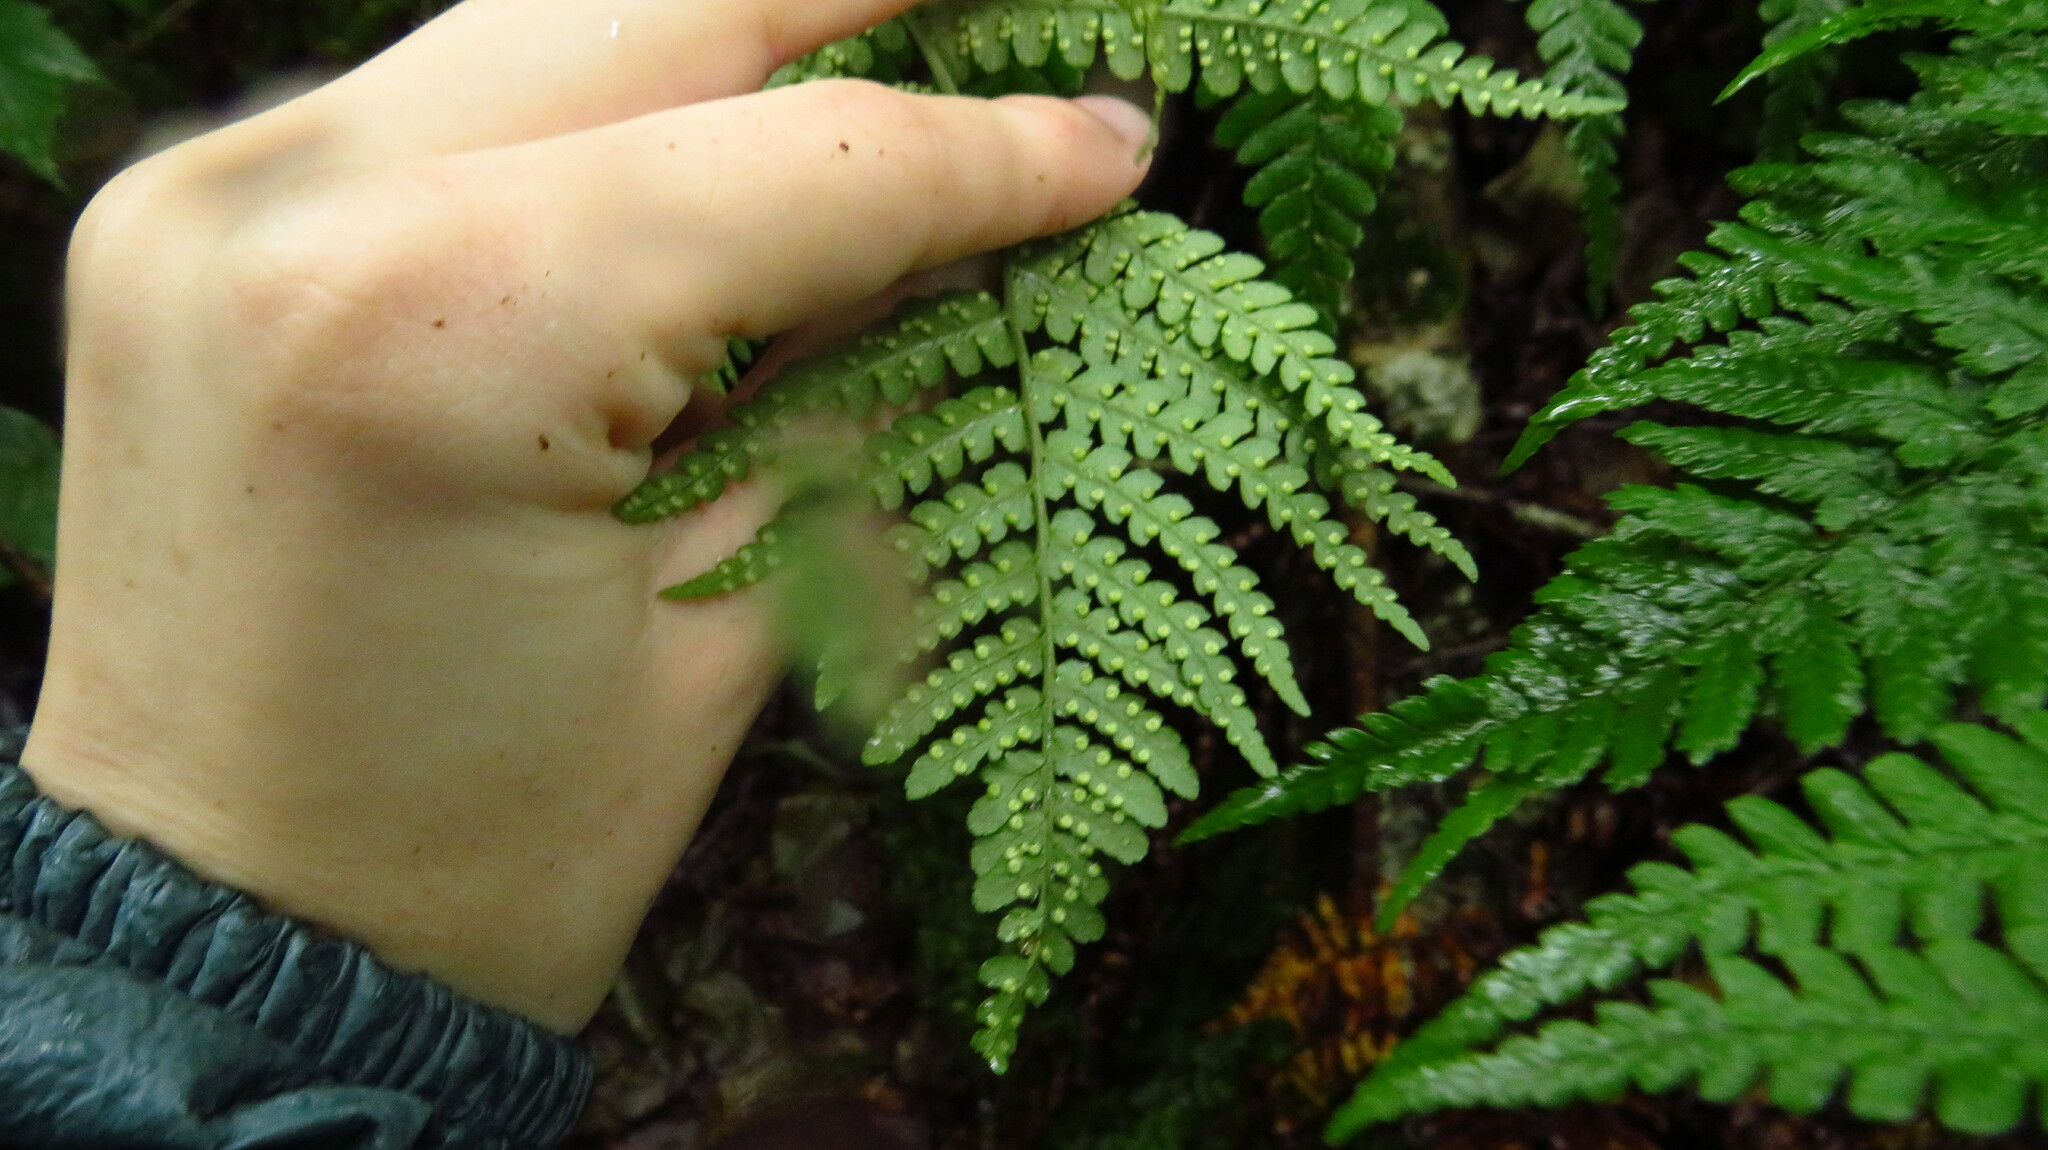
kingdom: Plantae
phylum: Tracheophyta
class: Polypodiopsida
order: Polypodiales
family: Dryopteridaceae
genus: Dryopteris
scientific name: Dryopteris marginalis
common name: Marginal wood fern
